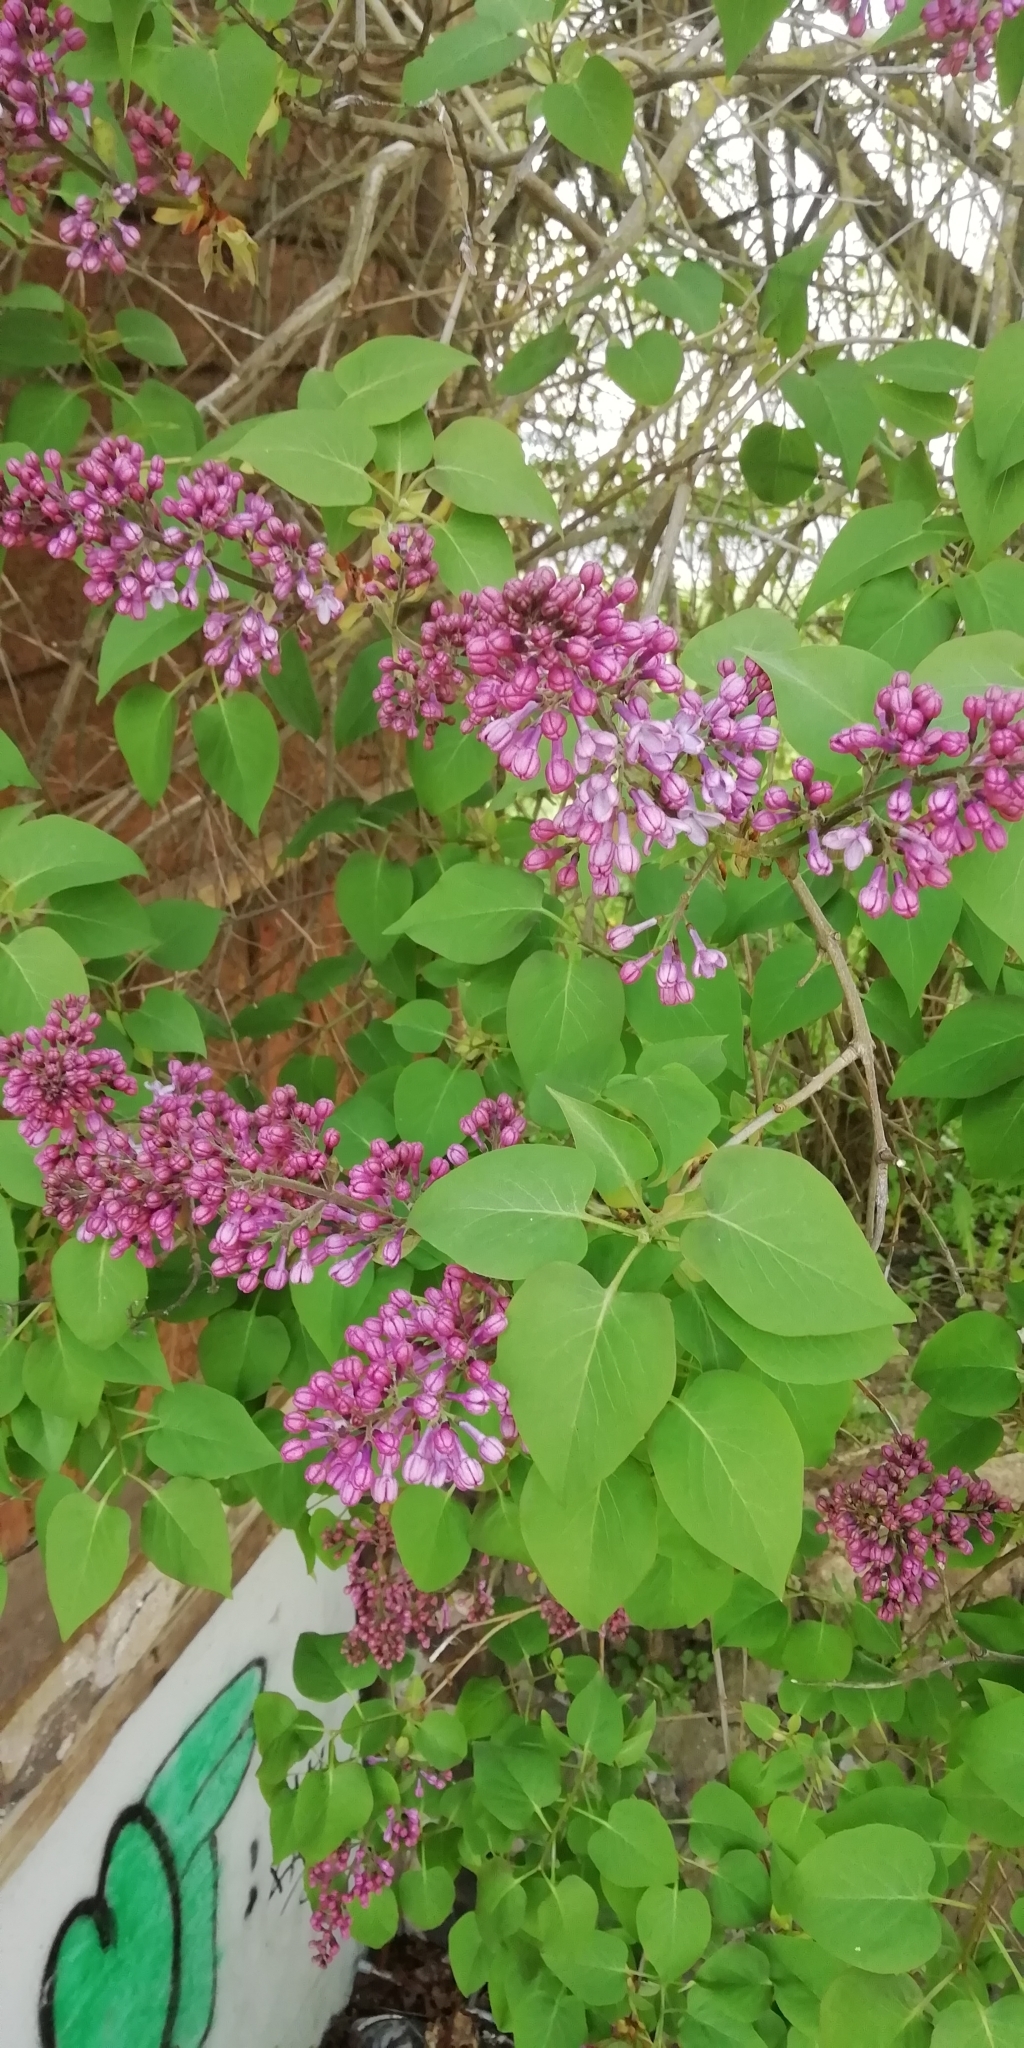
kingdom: Plantae
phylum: Tracheophyta
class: Magnoliopsida
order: Lamiales
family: Oleaceae
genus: Syringa
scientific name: Syringa vulgaris
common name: Common lilac
